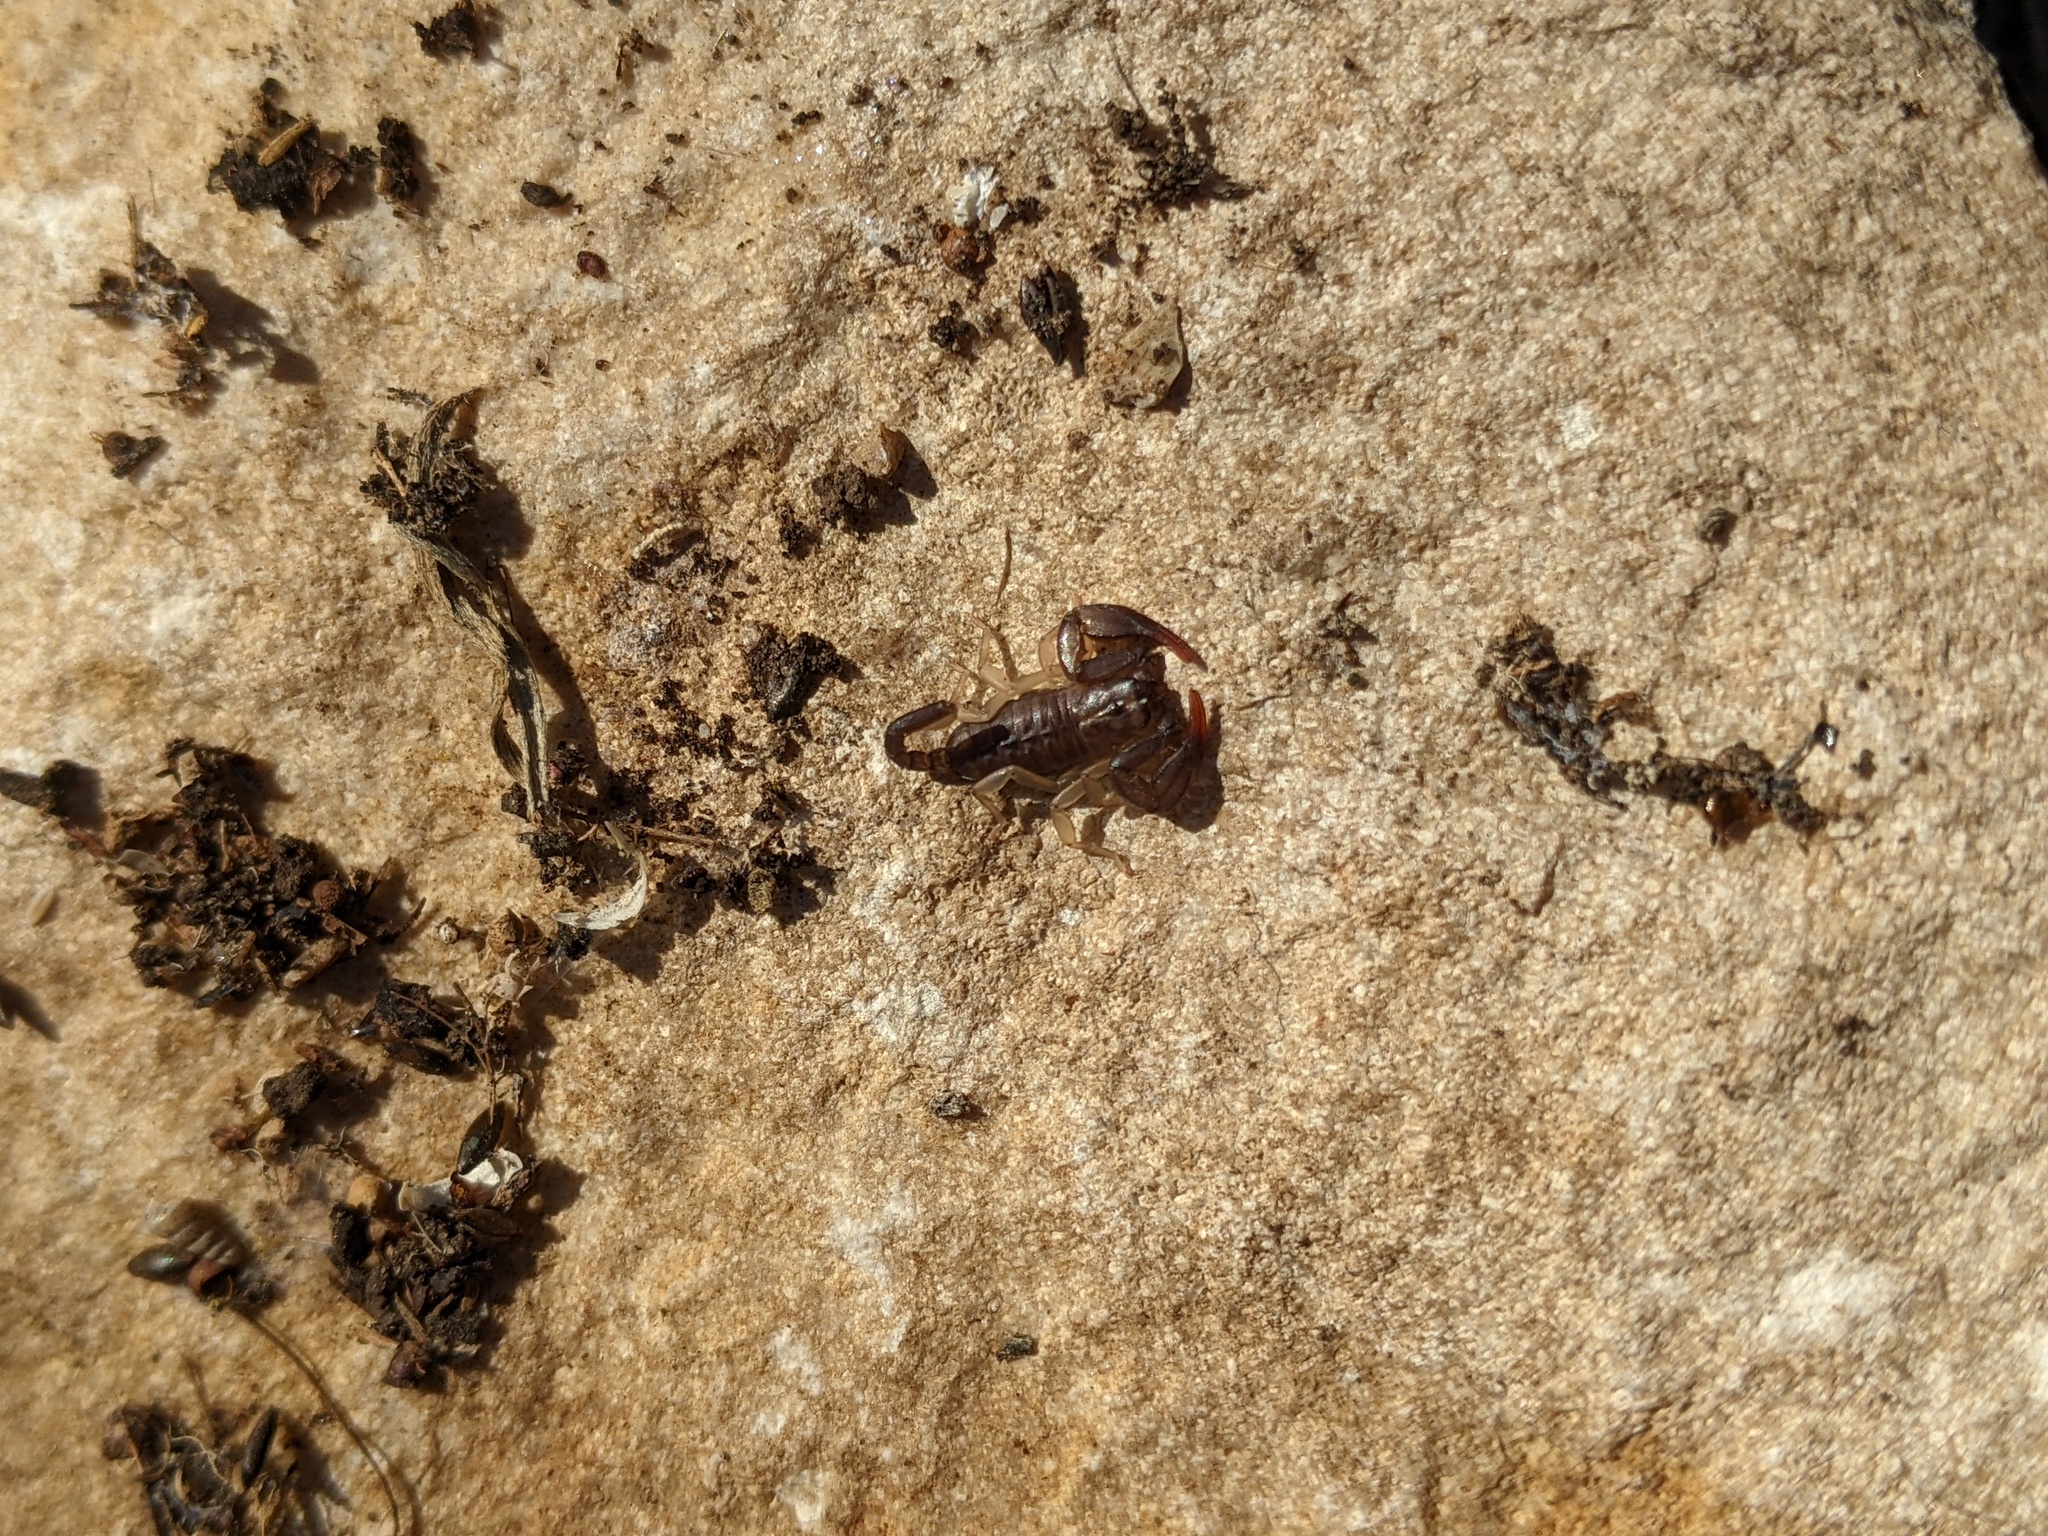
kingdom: Animalia
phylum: Arthropoda
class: Arachnida
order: Scorpiones
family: Euscorpiidae
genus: Euscorpius
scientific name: Euscorpius
